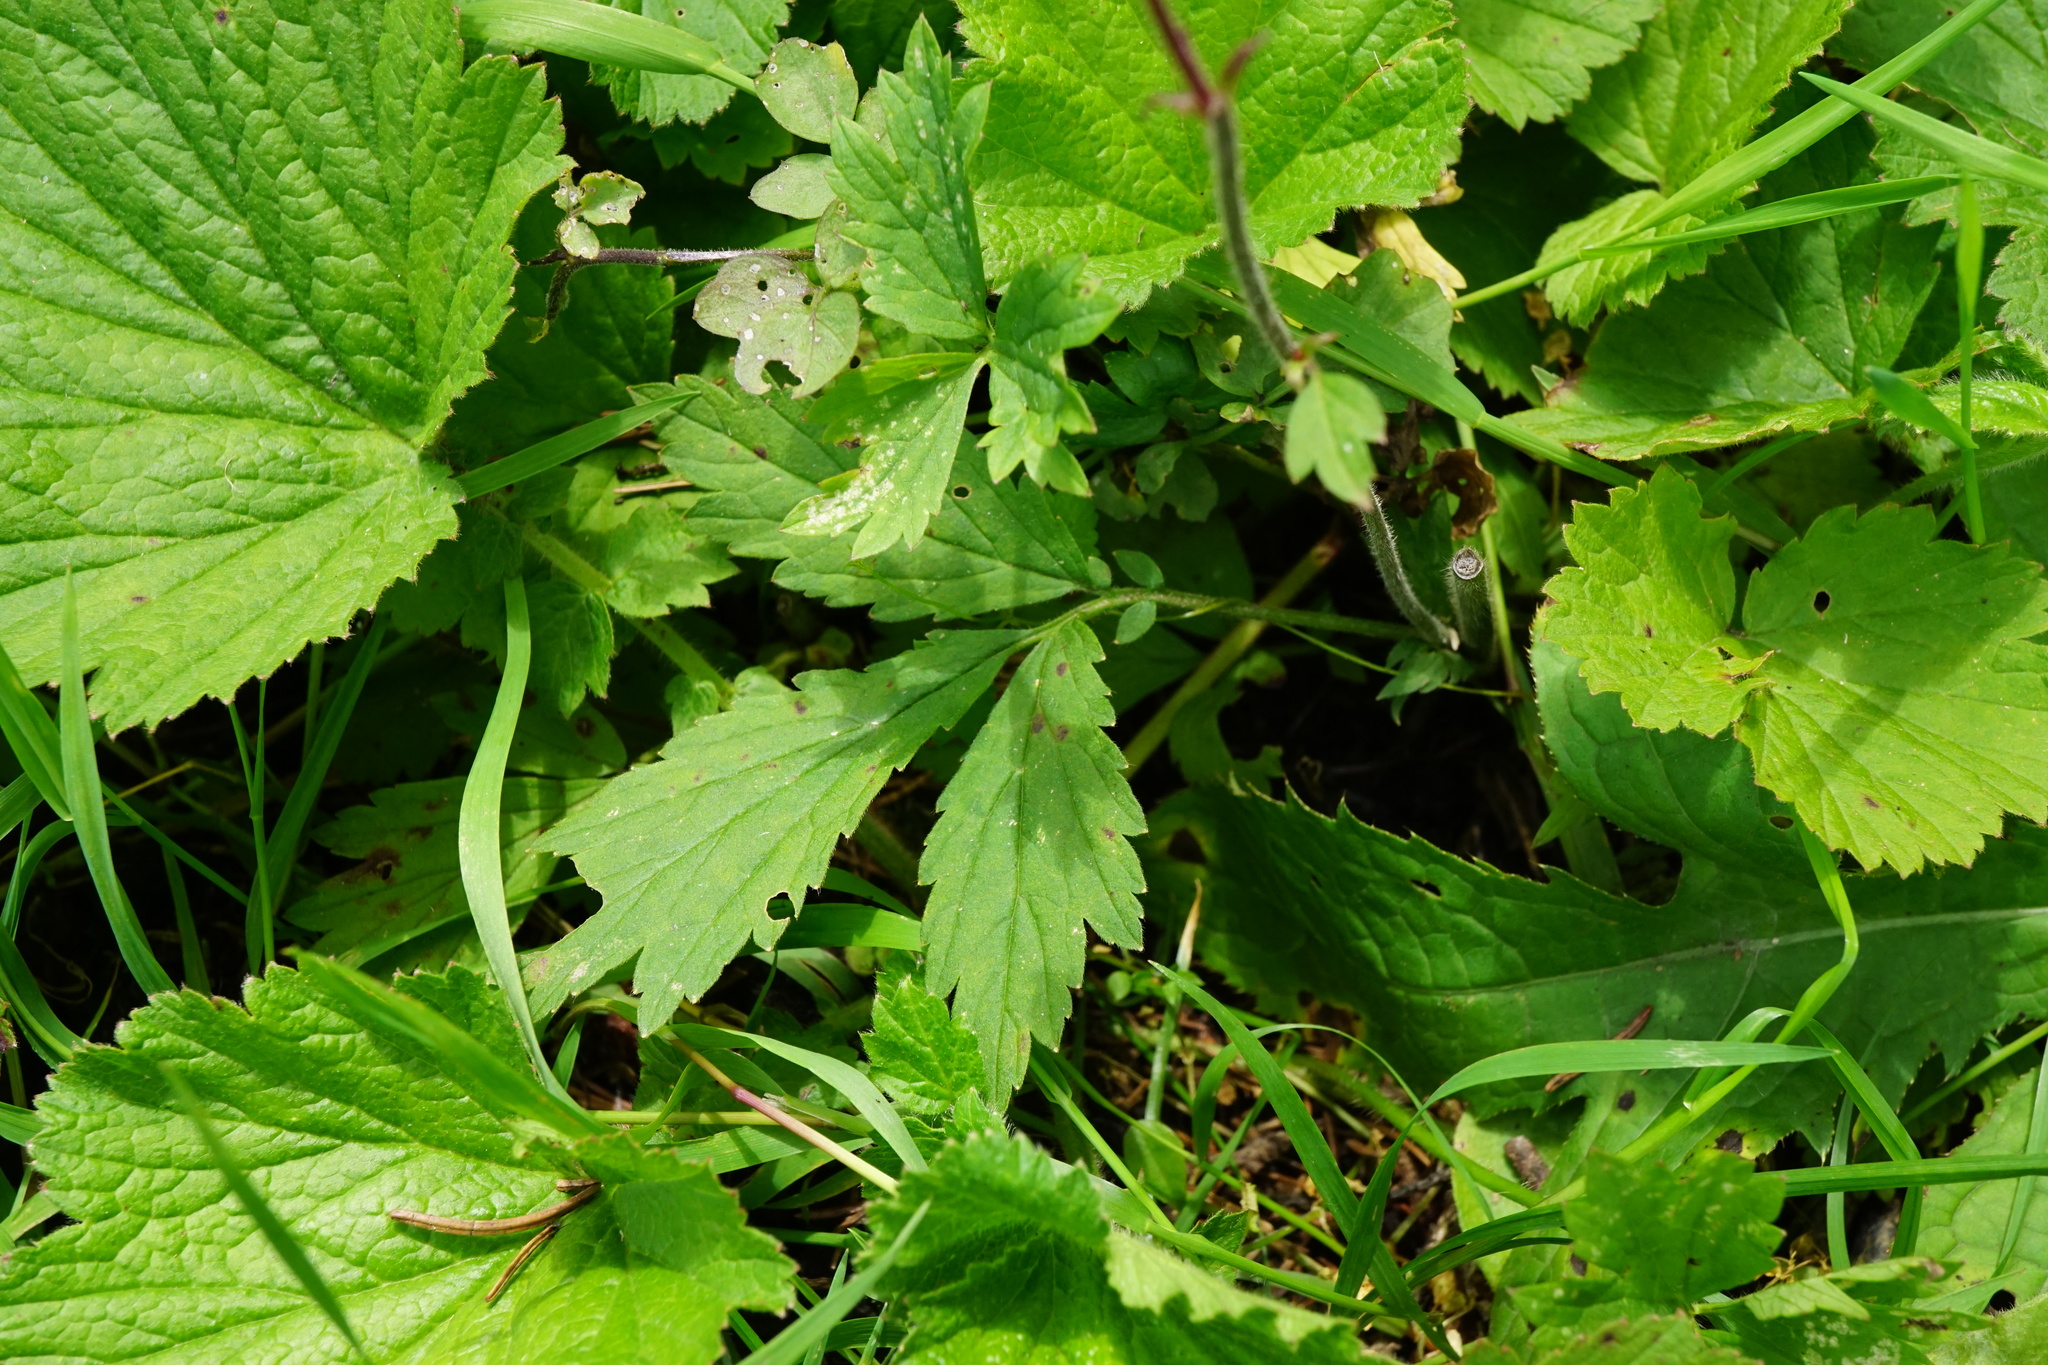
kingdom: Plantae
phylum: Tracheophyta
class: Magnoliopsida
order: Rosales
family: Rosaceae
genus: Geum
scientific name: Geum rivale
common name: Water avens
